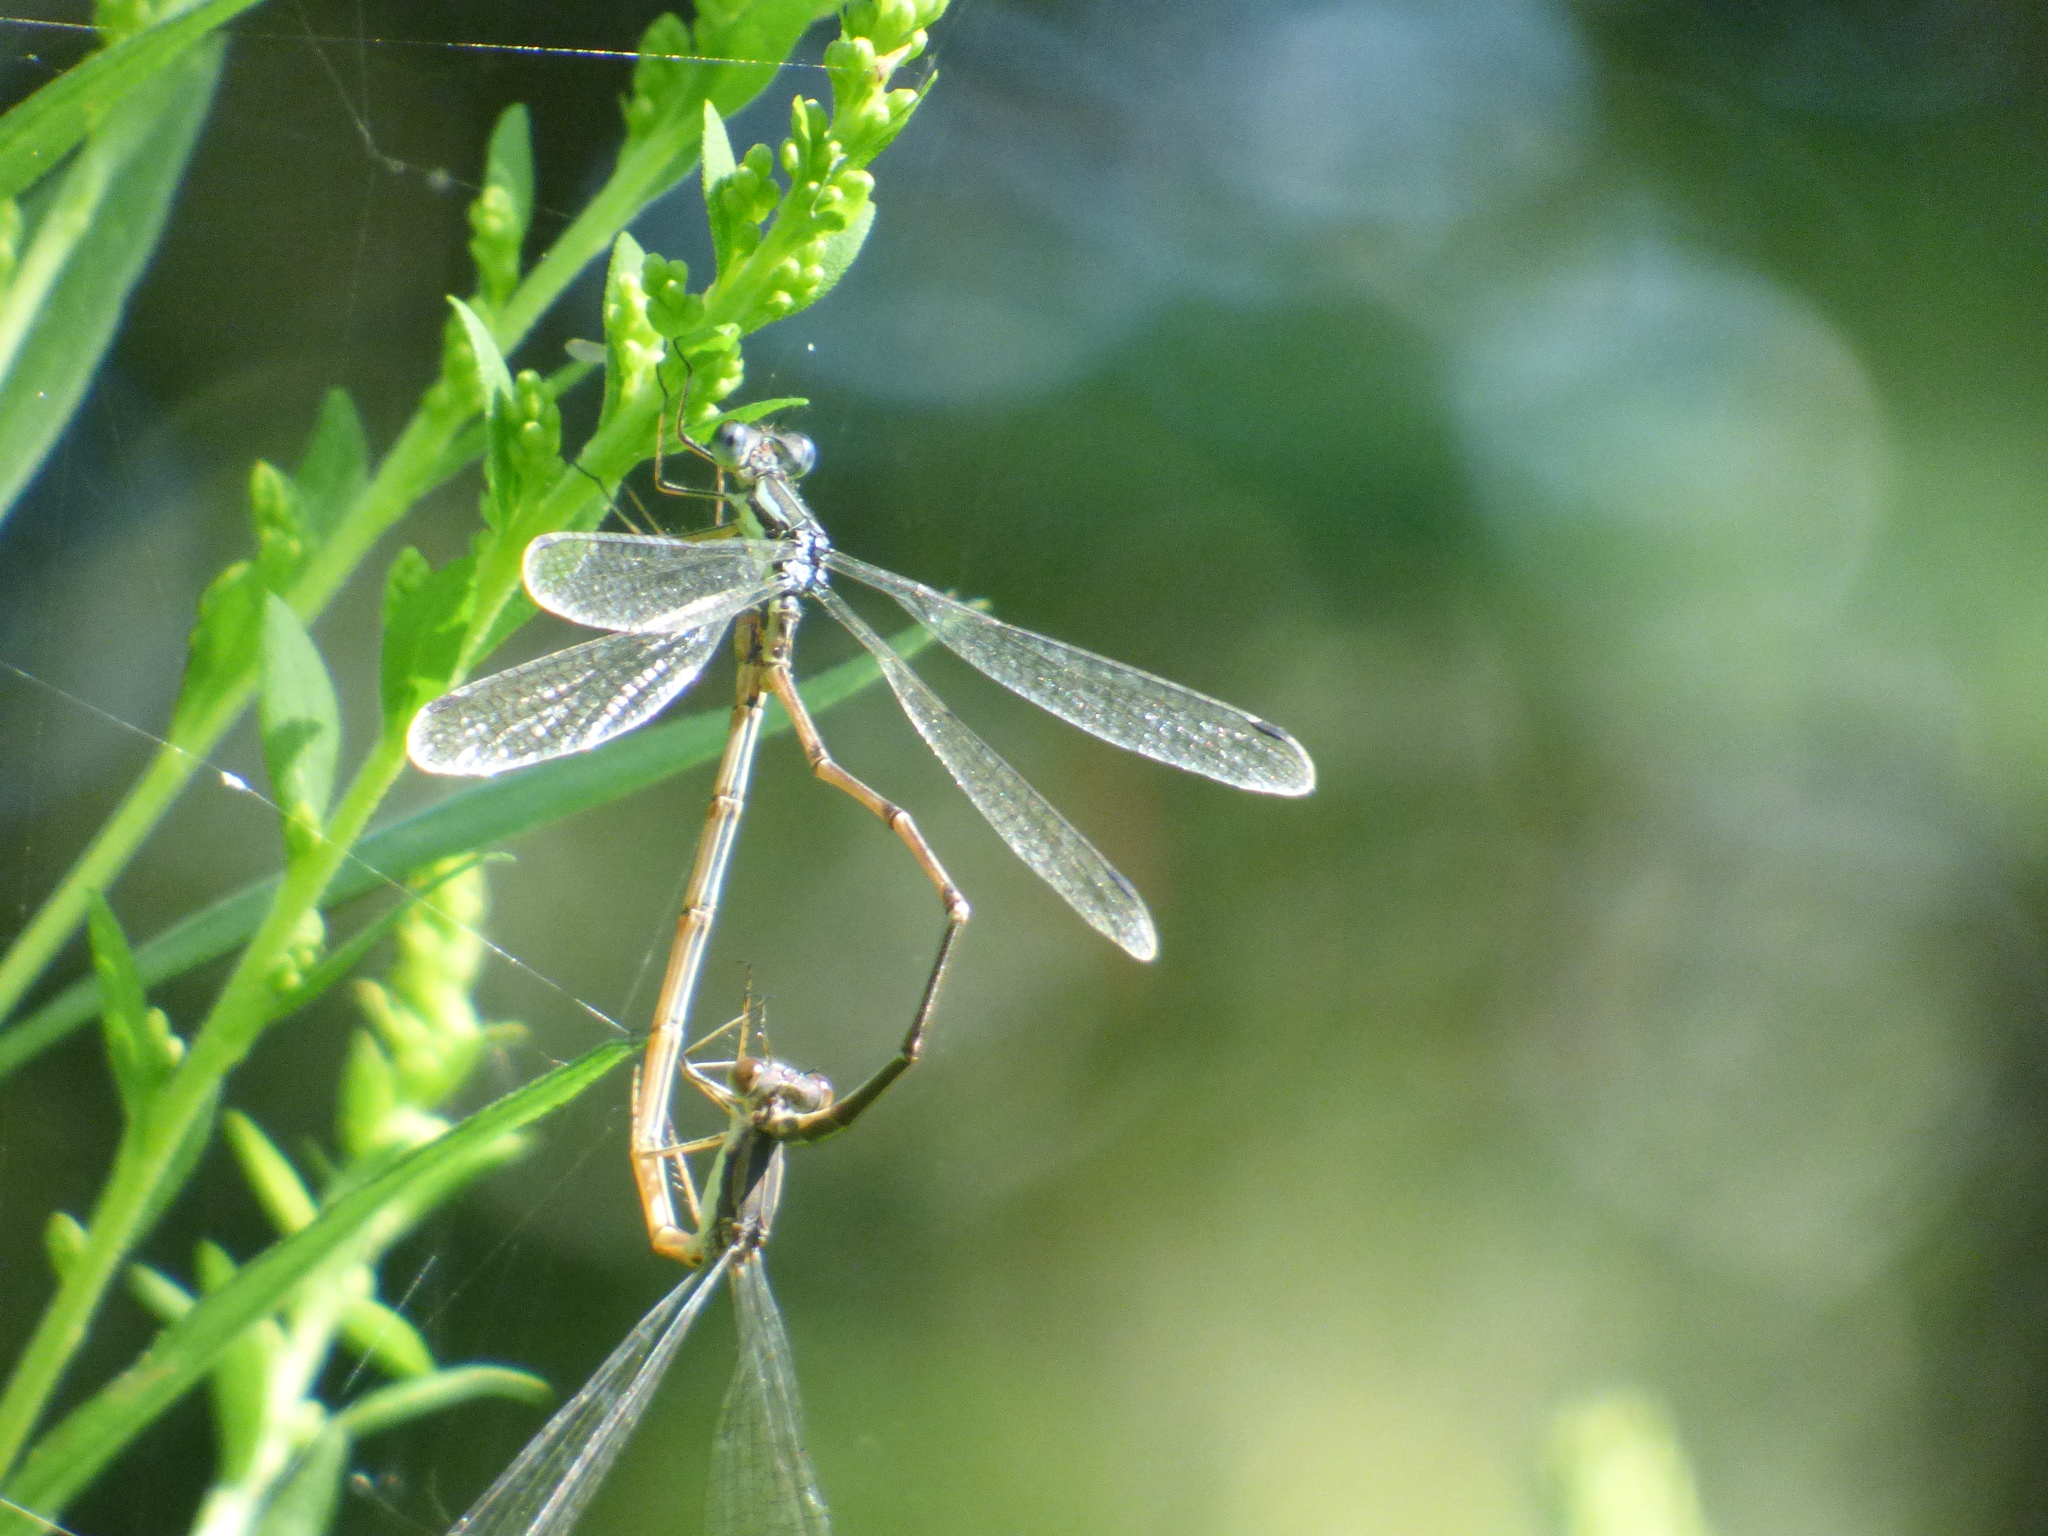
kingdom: Animalia
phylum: Arthropoda
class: Insecta
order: Odonata
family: Lestidae
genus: Lestes
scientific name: Lestes rectangularis
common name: Slender spreadwing
